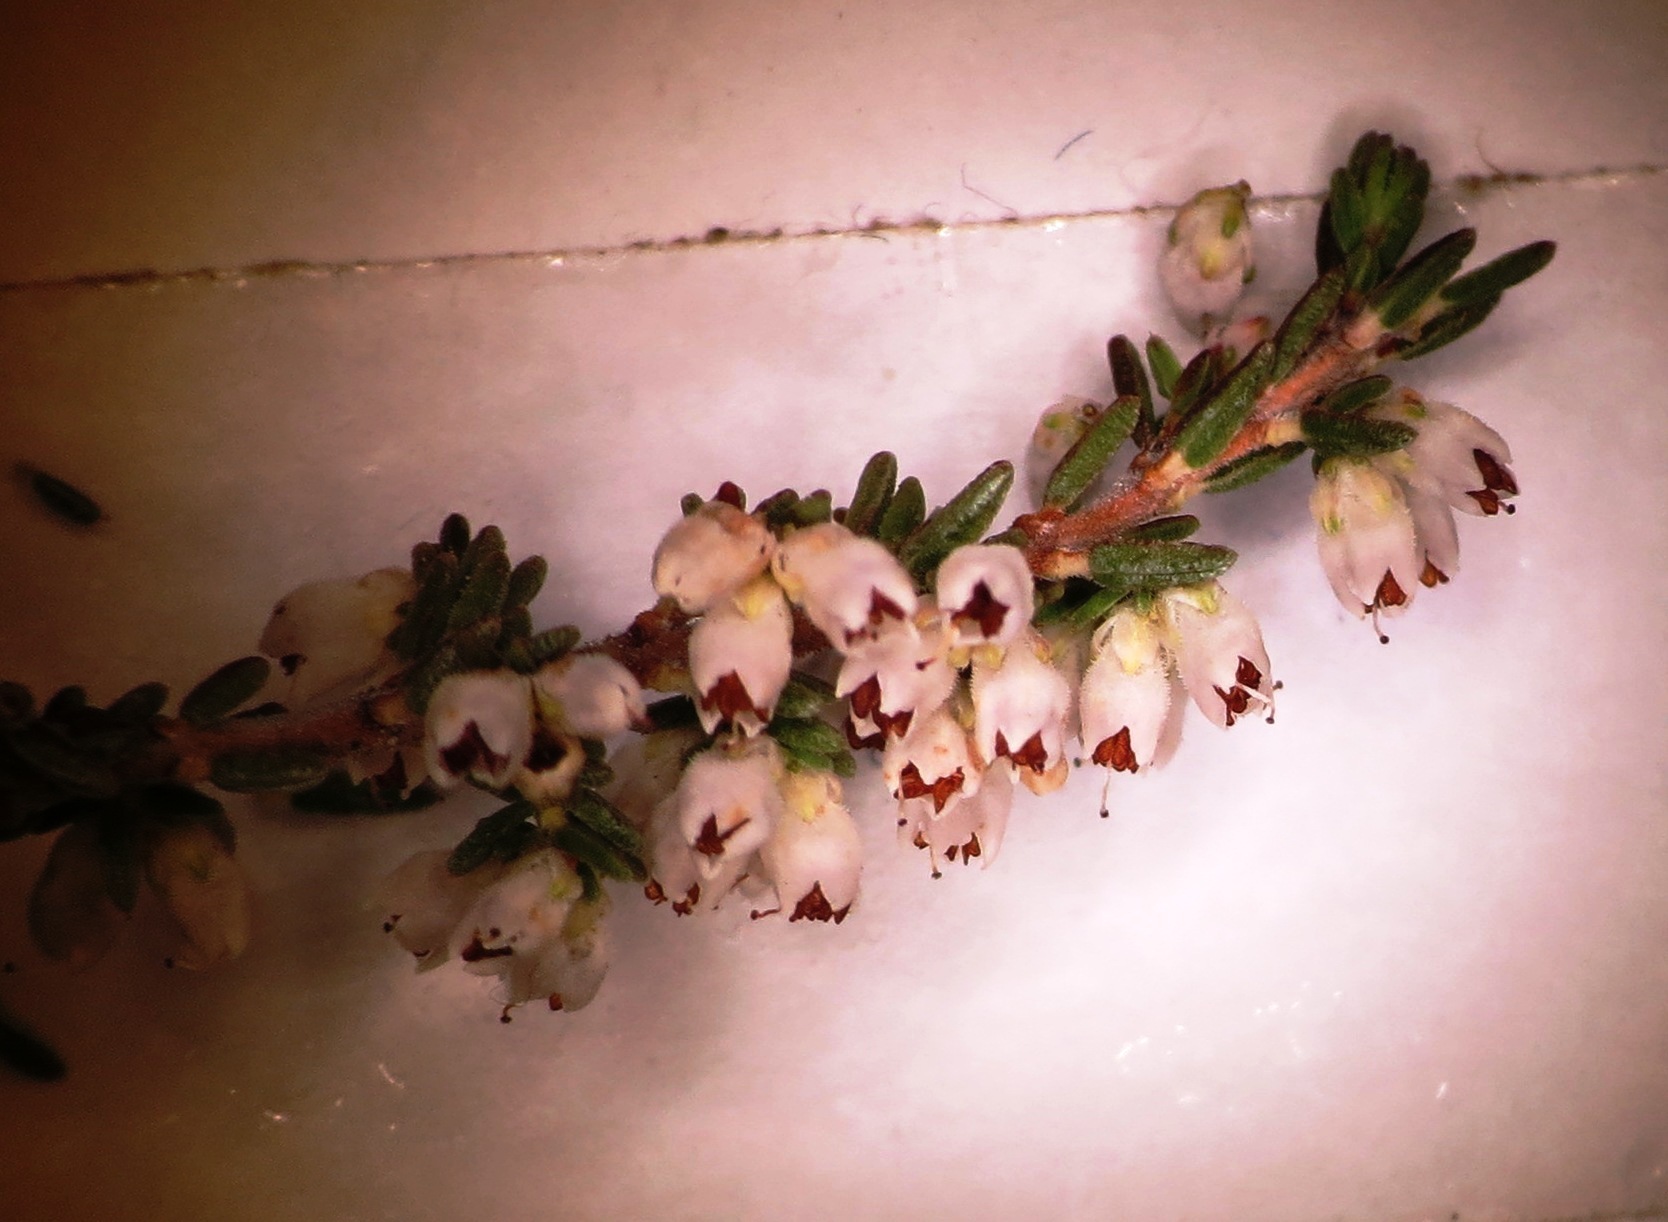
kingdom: Plantae
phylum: Tracheophyta
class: Magnoliopsida
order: Ericales
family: Ericaceae
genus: Erica
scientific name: Erica eremioides
